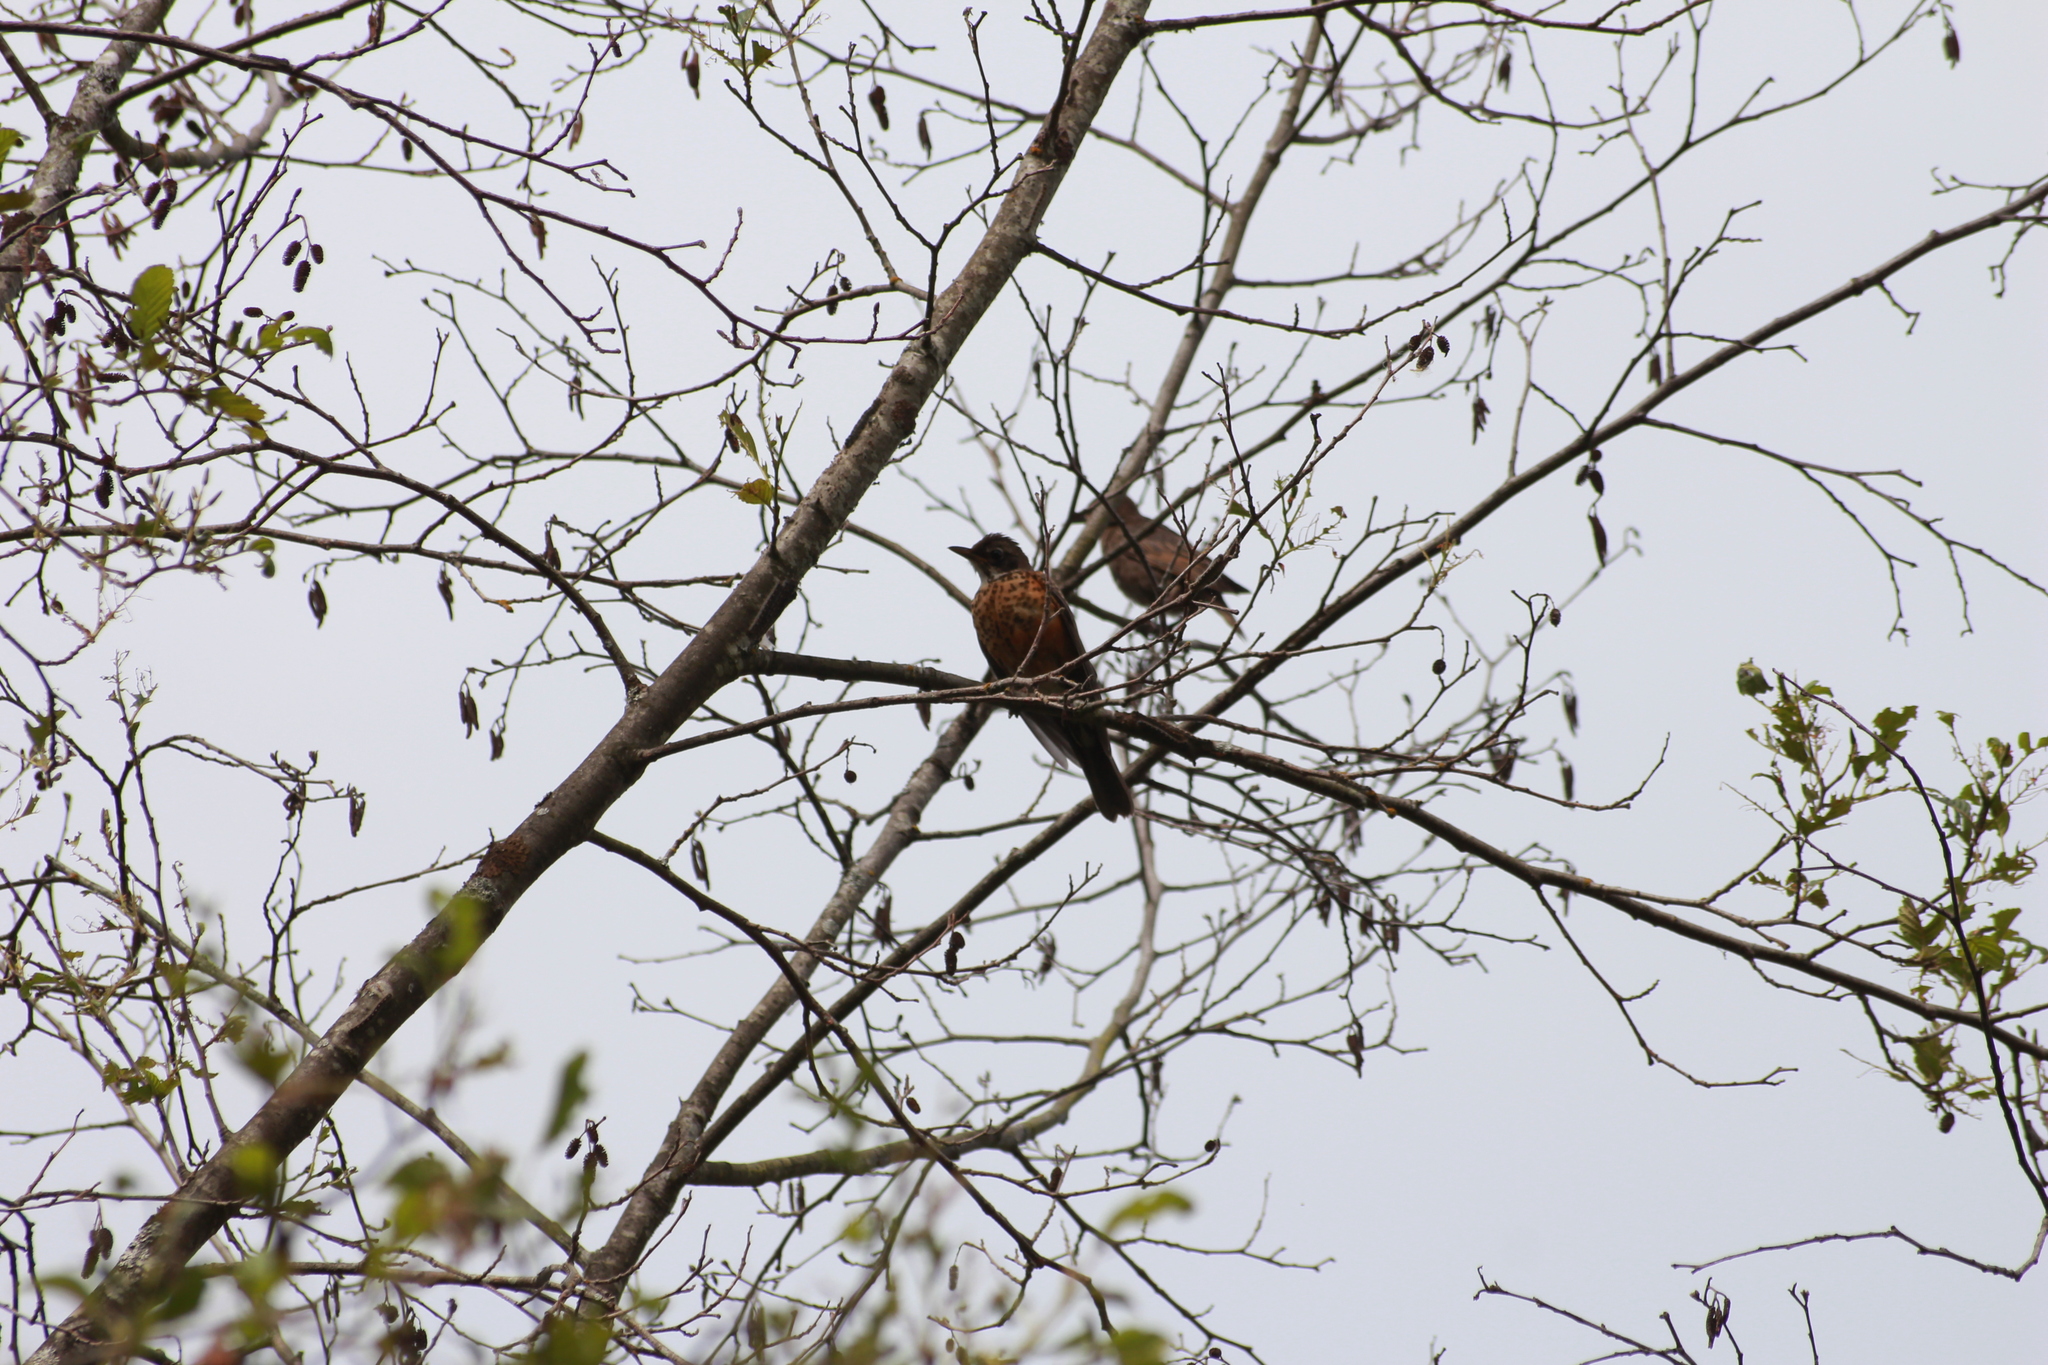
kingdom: Animalia
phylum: Chordata
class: Aves
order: Passeriformes
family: Turdidae
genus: Turdus
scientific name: Turdus migratorius
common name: American robin
